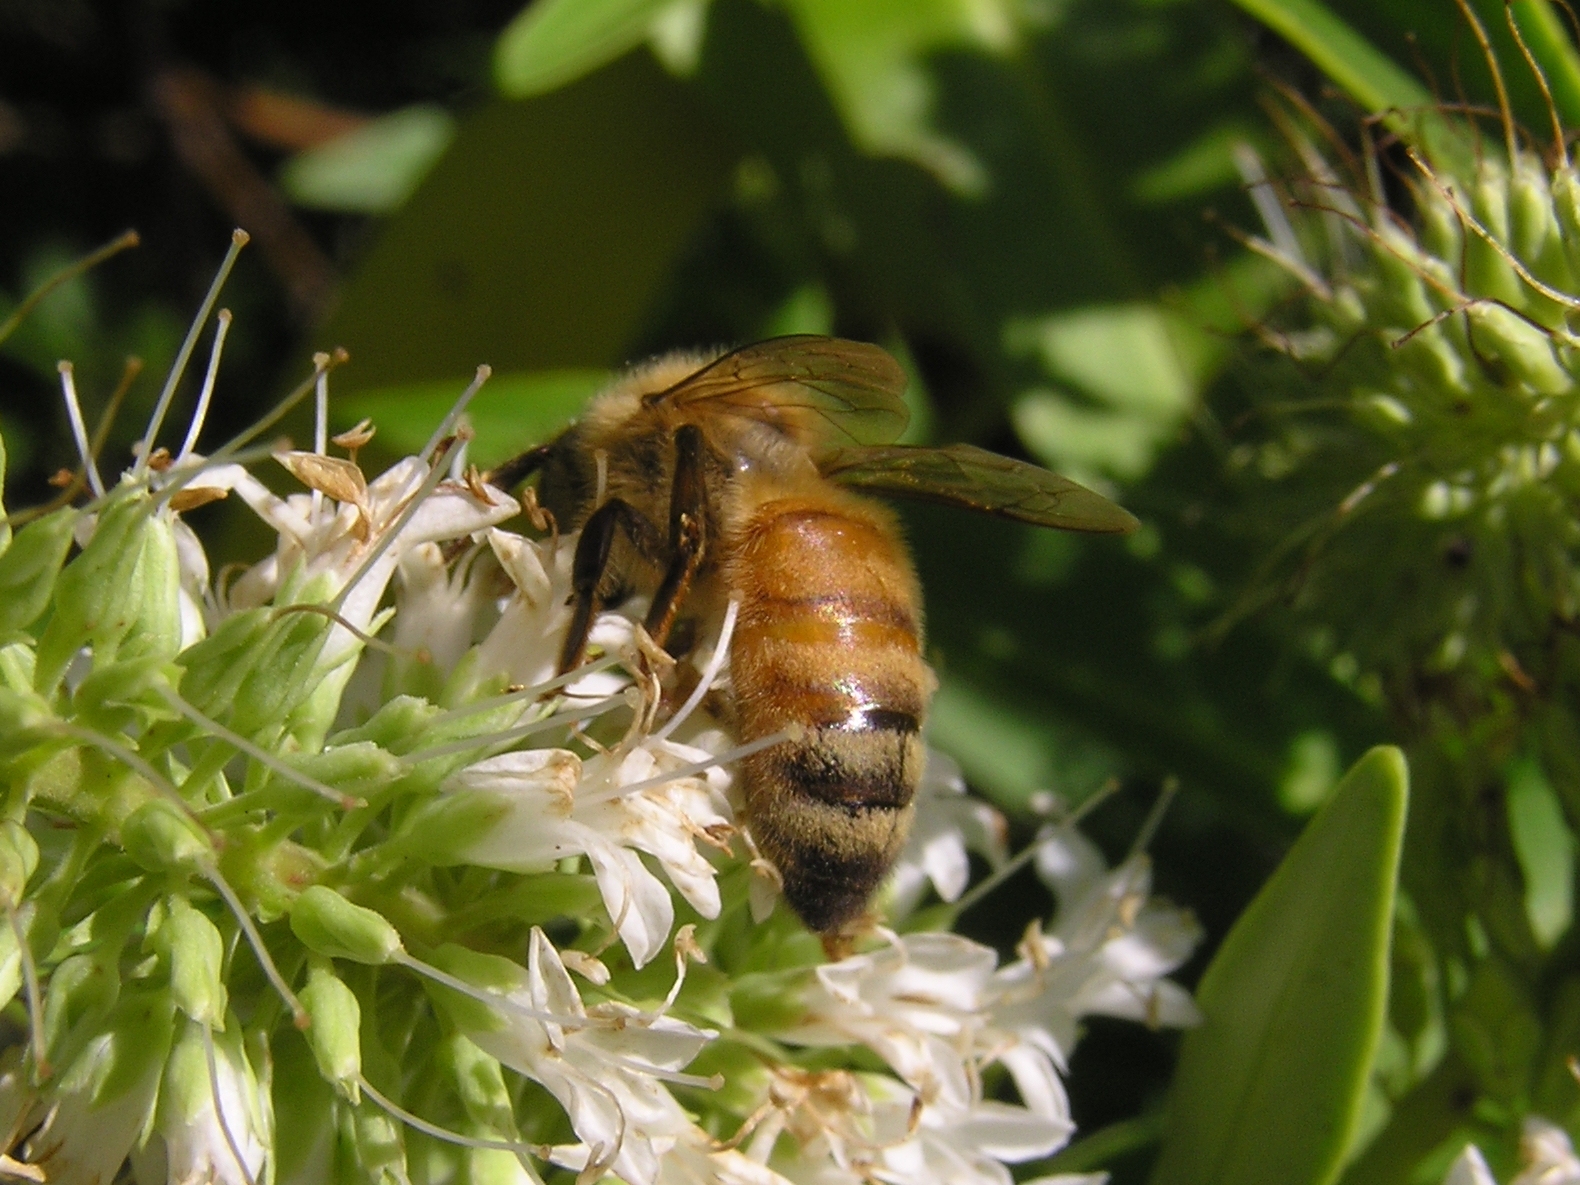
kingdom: Animalia
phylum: Arthropoda
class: Insecta
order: Hymenoptera
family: Apidae
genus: Apis
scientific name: Apis mellifera
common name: Honey bee
